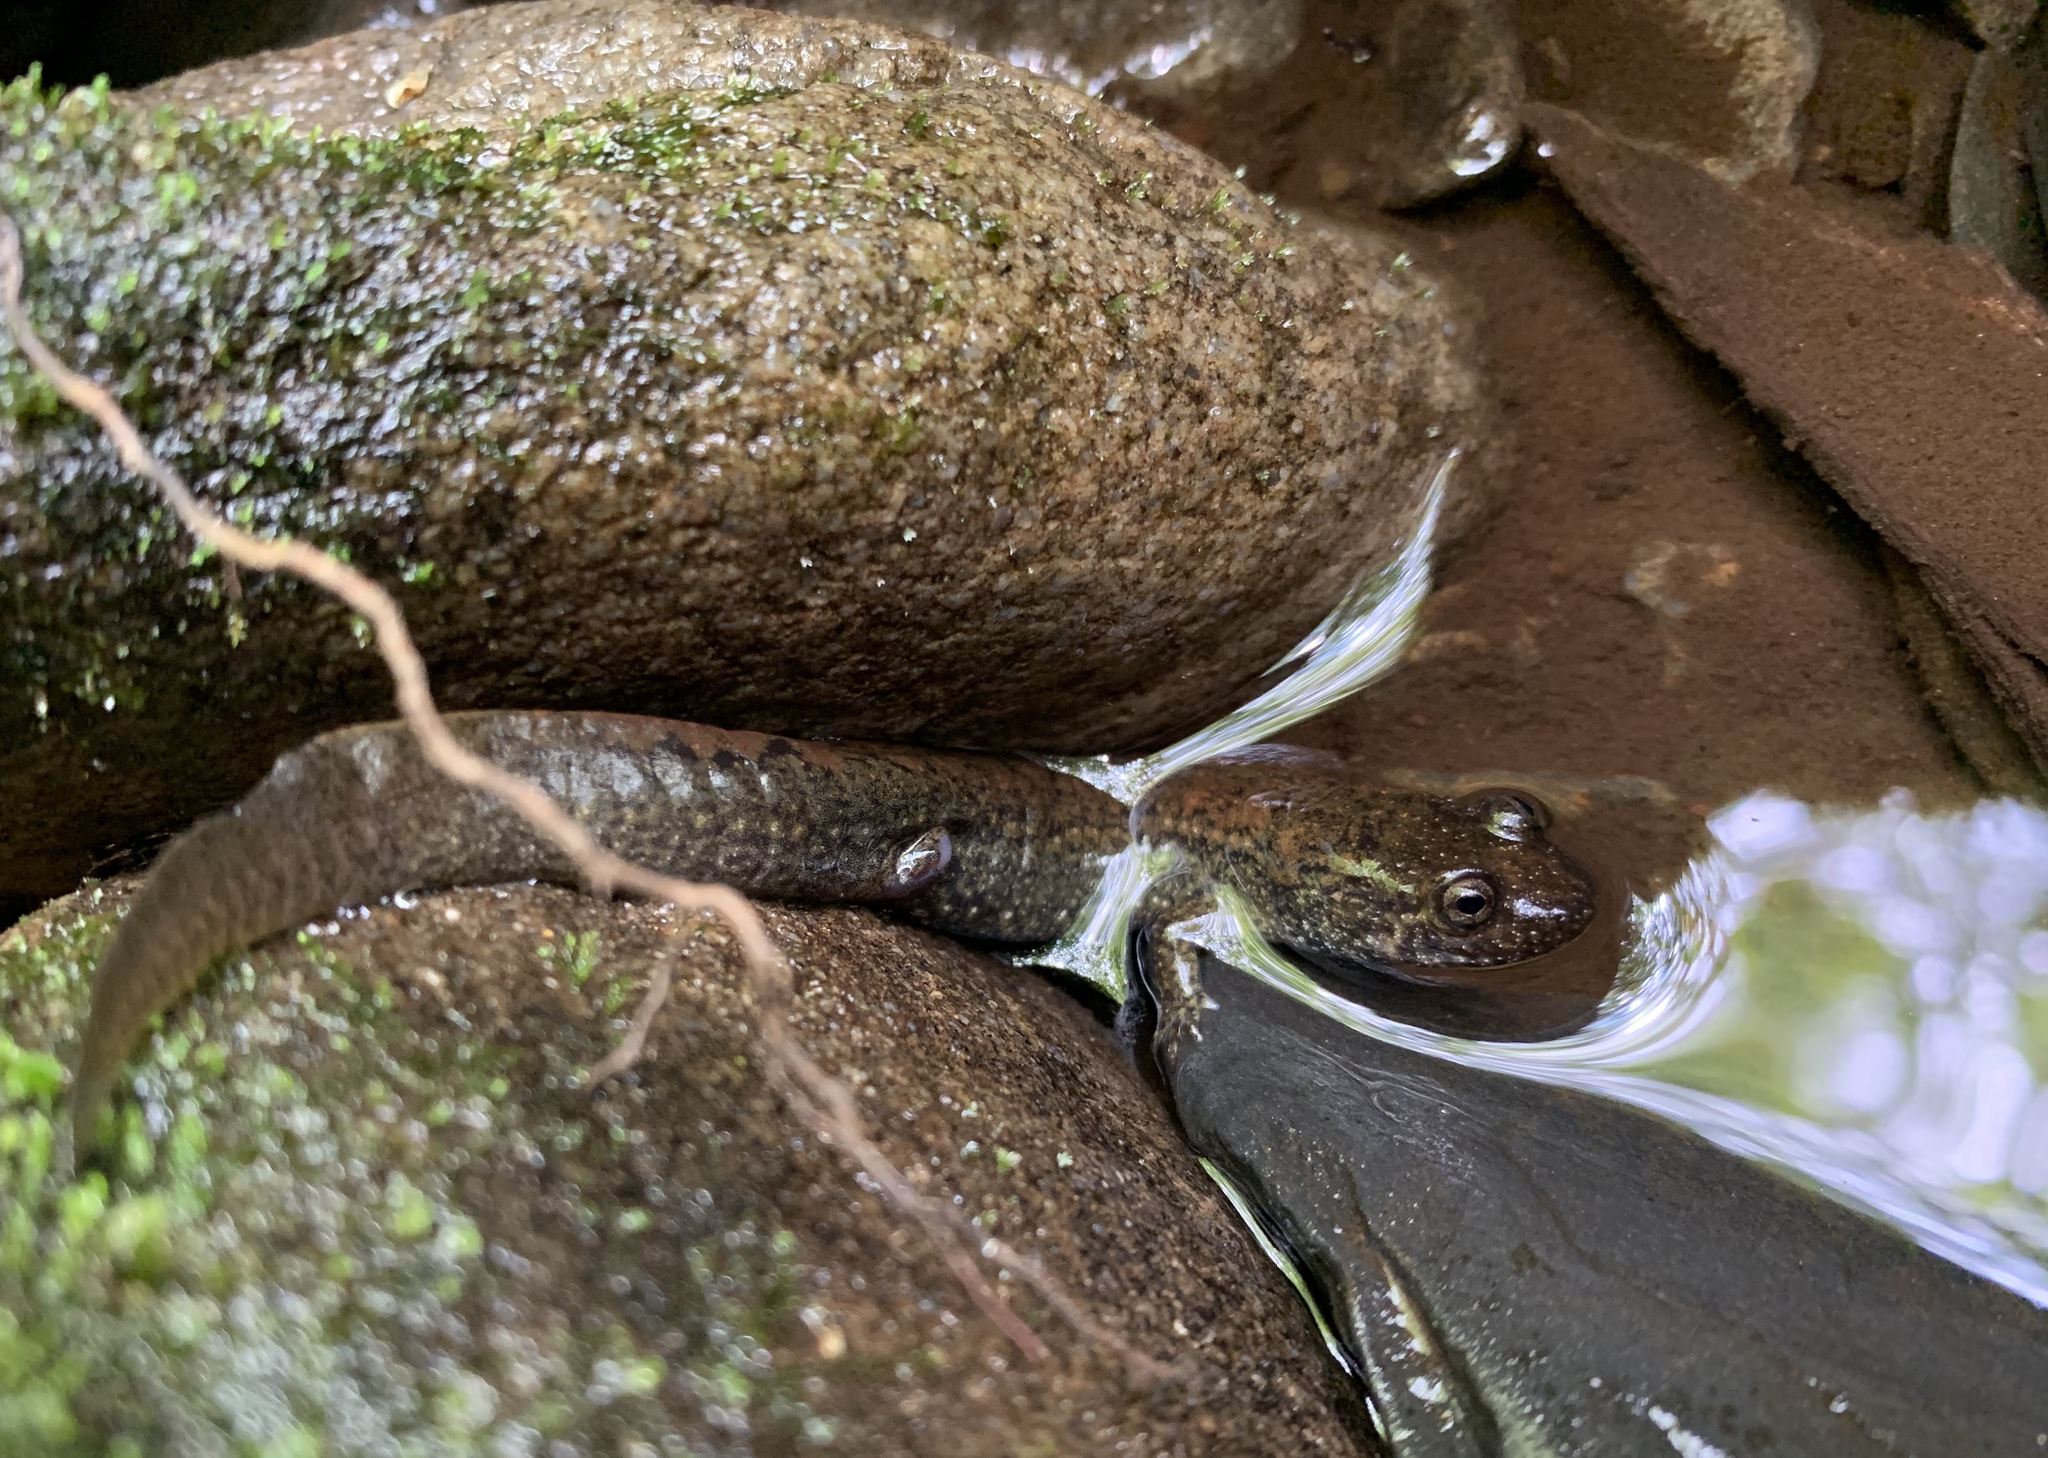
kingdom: Animalia
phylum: Chordata
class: Amphibia
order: Caudata
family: Plethodontidae
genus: Desmognathus
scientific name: Desmognathus
